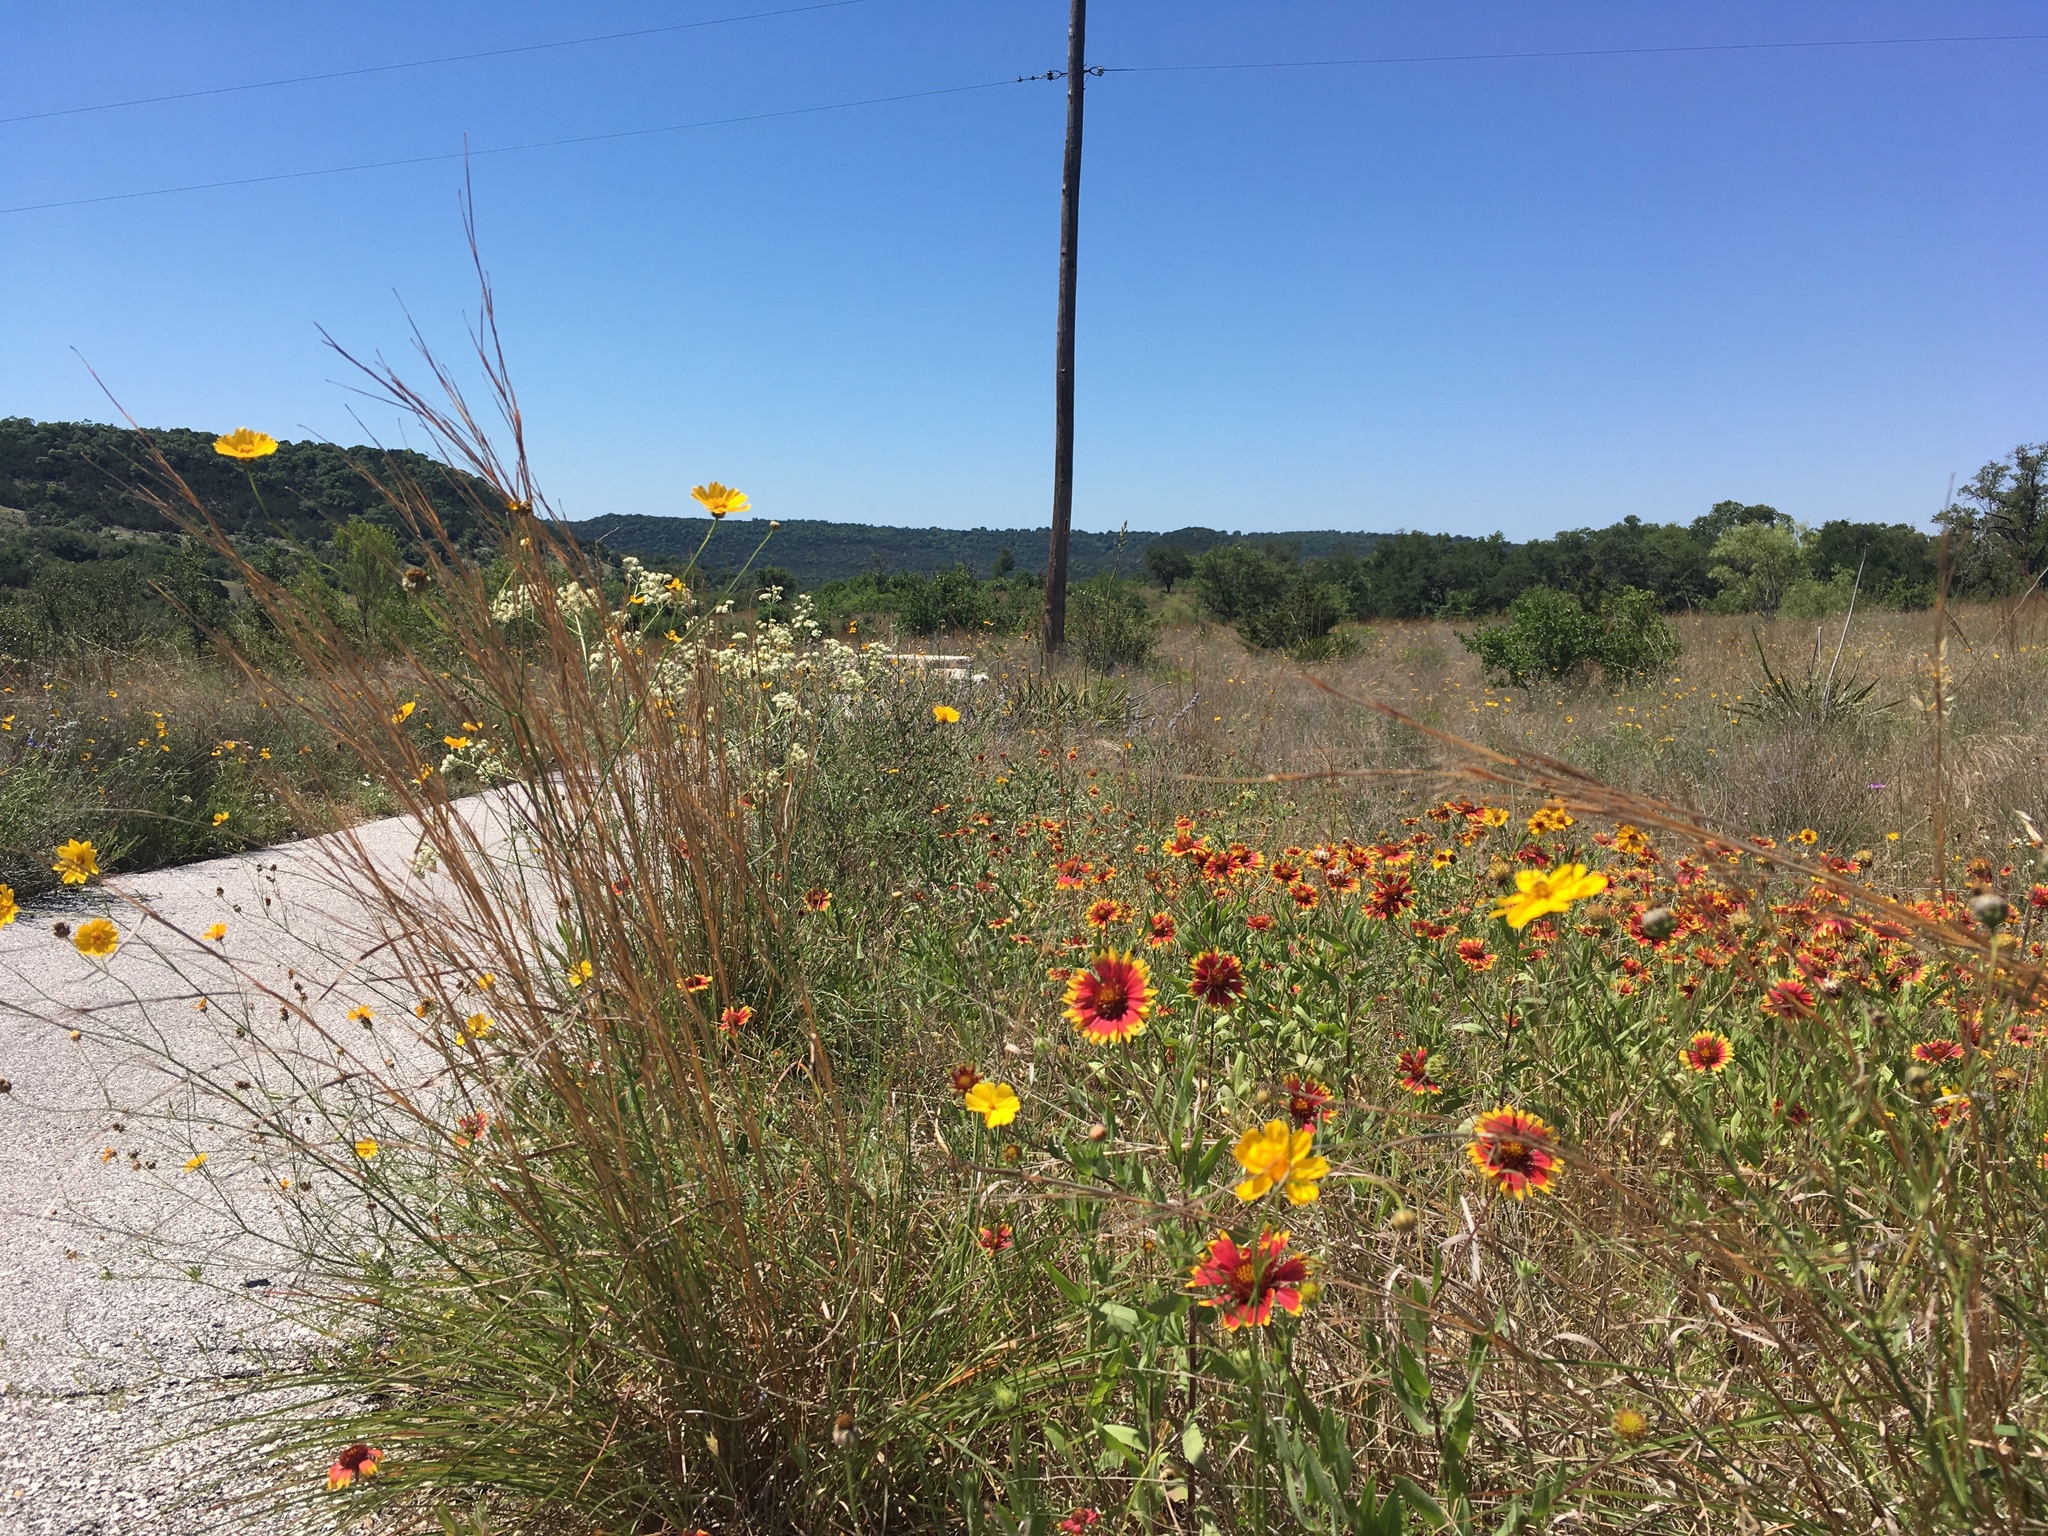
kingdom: Plantae
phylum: Tracheophyta
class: Magnoliopsida
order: Asterales
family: Asteraceae
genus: Gaillardia
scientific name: Gaillardia pulchella
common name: Firewheel
